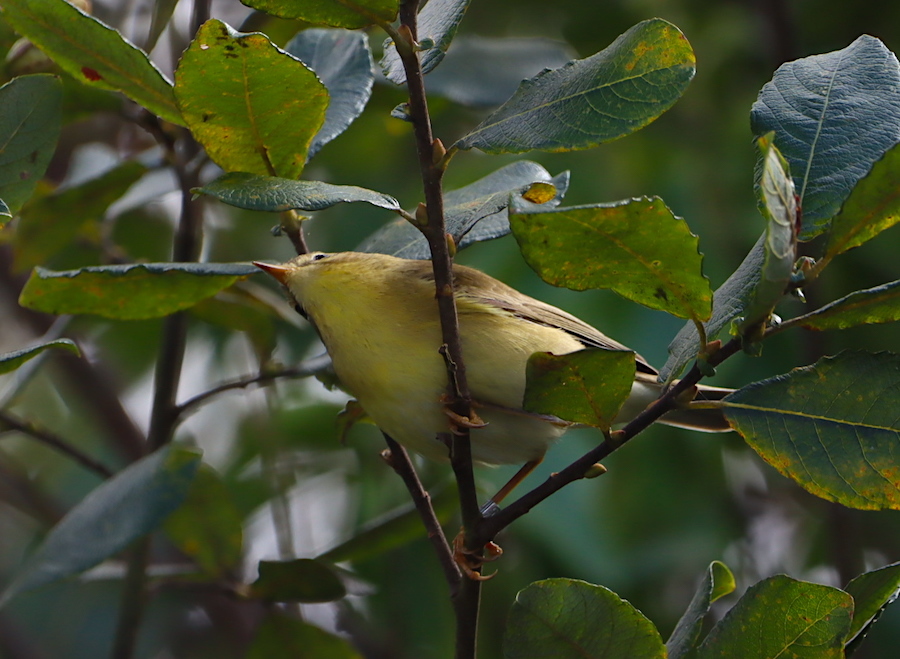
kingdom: Animalia
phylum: Chordata
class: Aves
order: Passeriformes
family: Phylloscopidae
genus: Phylloscopus
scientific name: Phylloscopus trochilus
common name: Willow warbler
